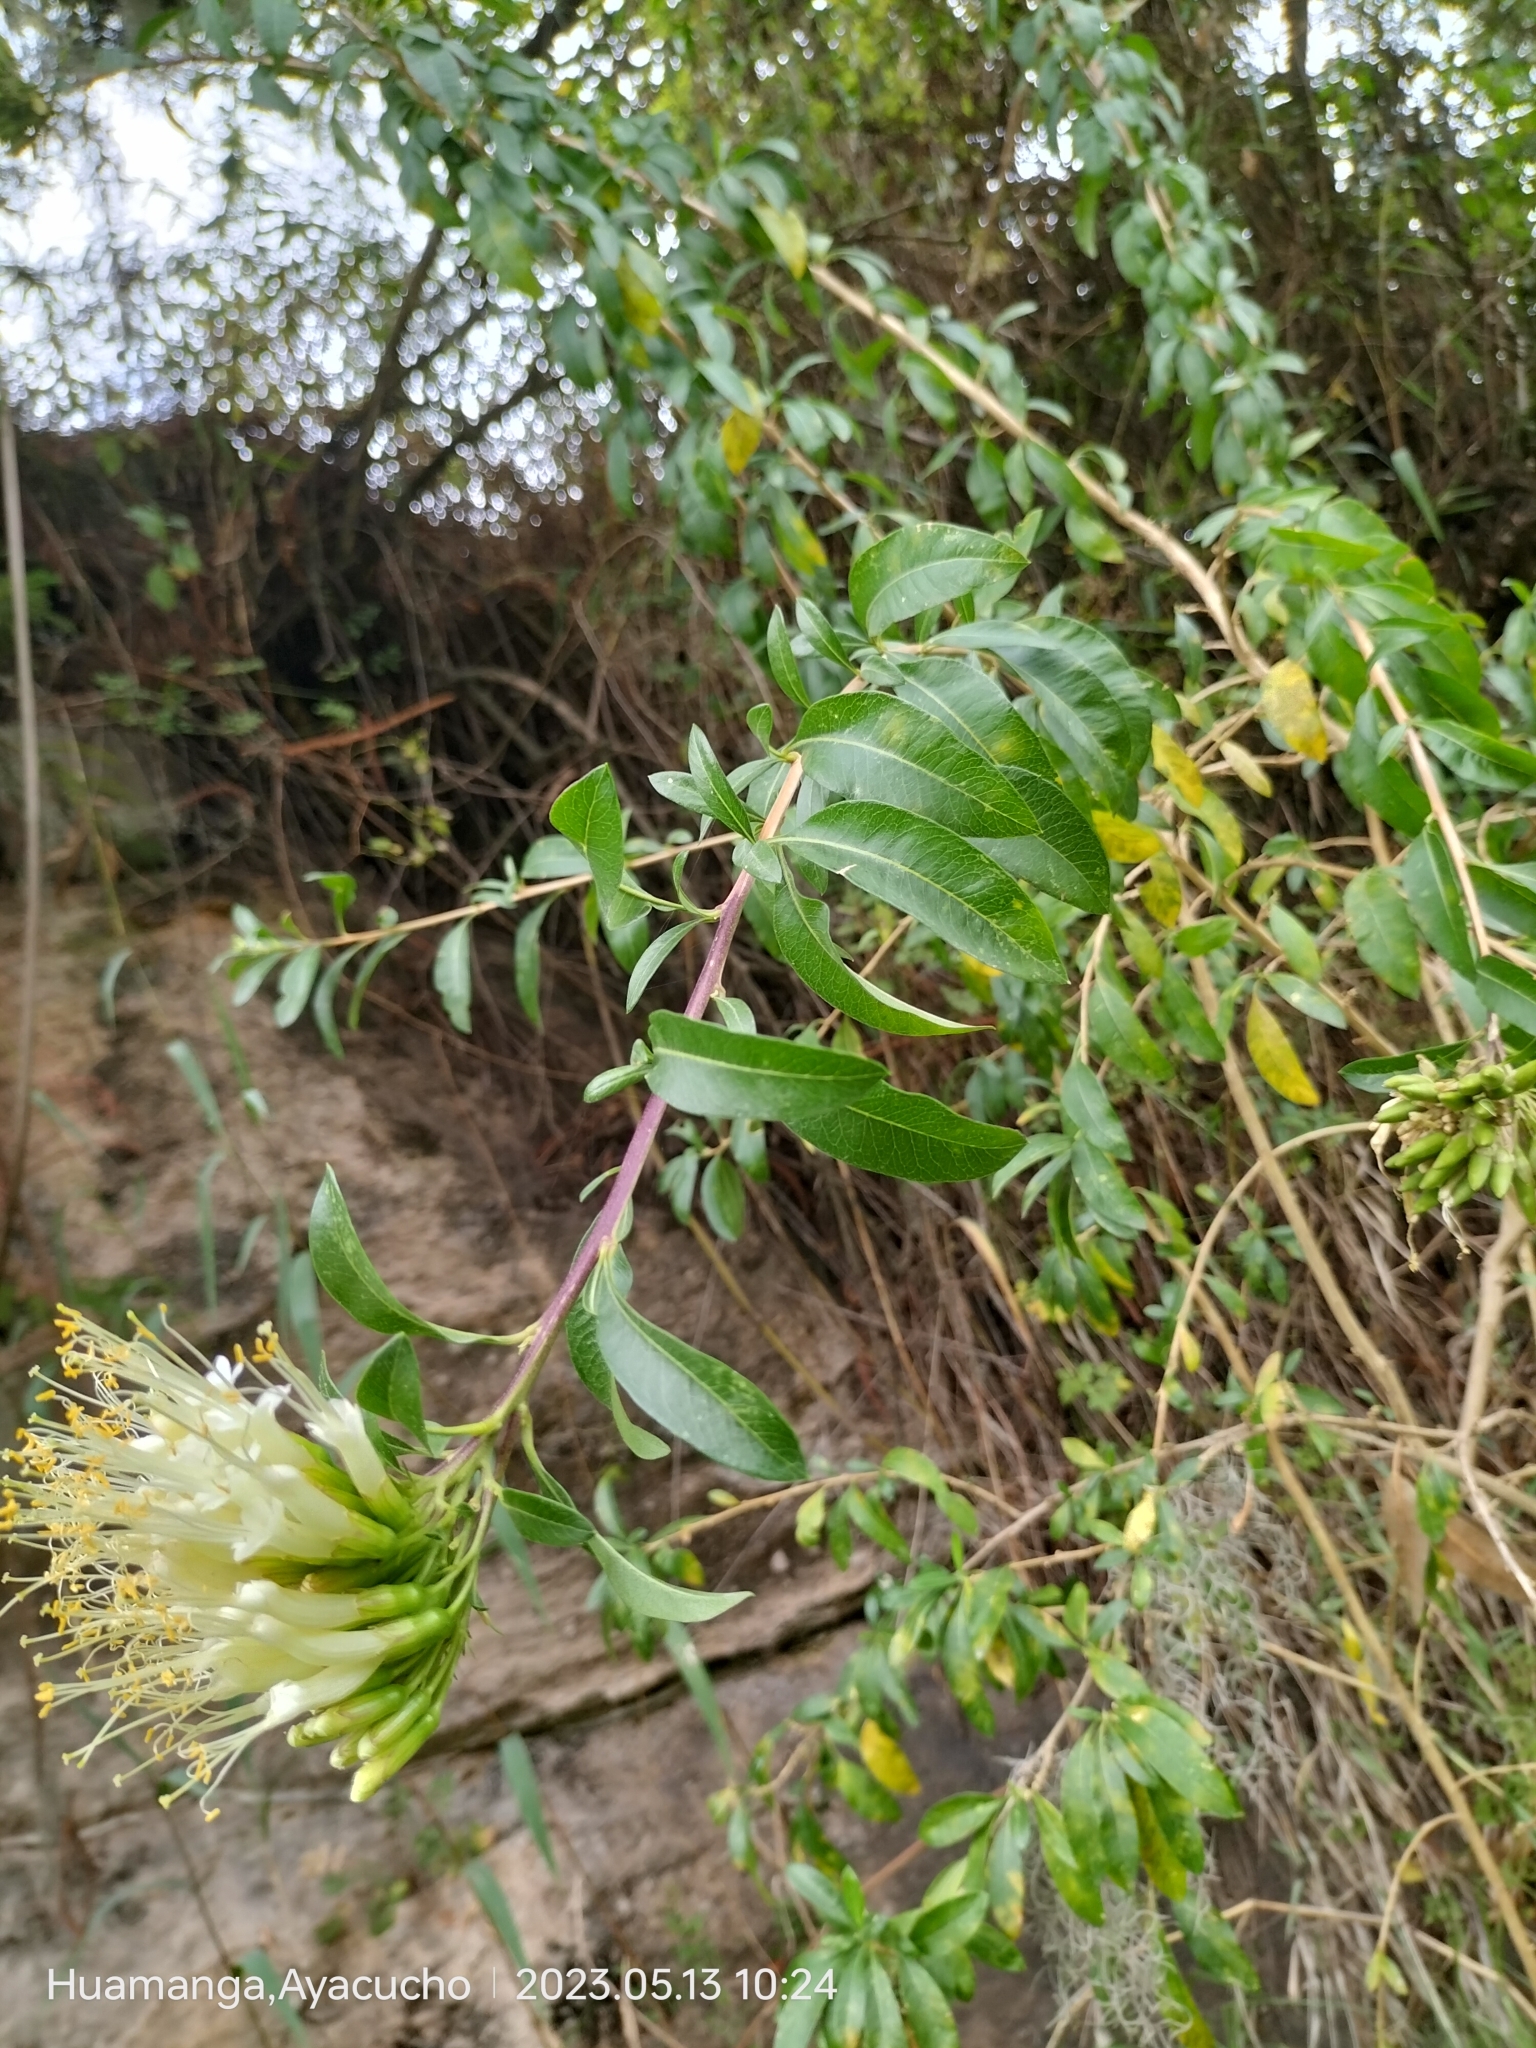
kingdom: Plantae
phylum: Tracheophyta
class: Magnoliopsida
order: Ericales
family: Polemoniaceae
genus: Cantua
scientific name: Cantua flexuosa
